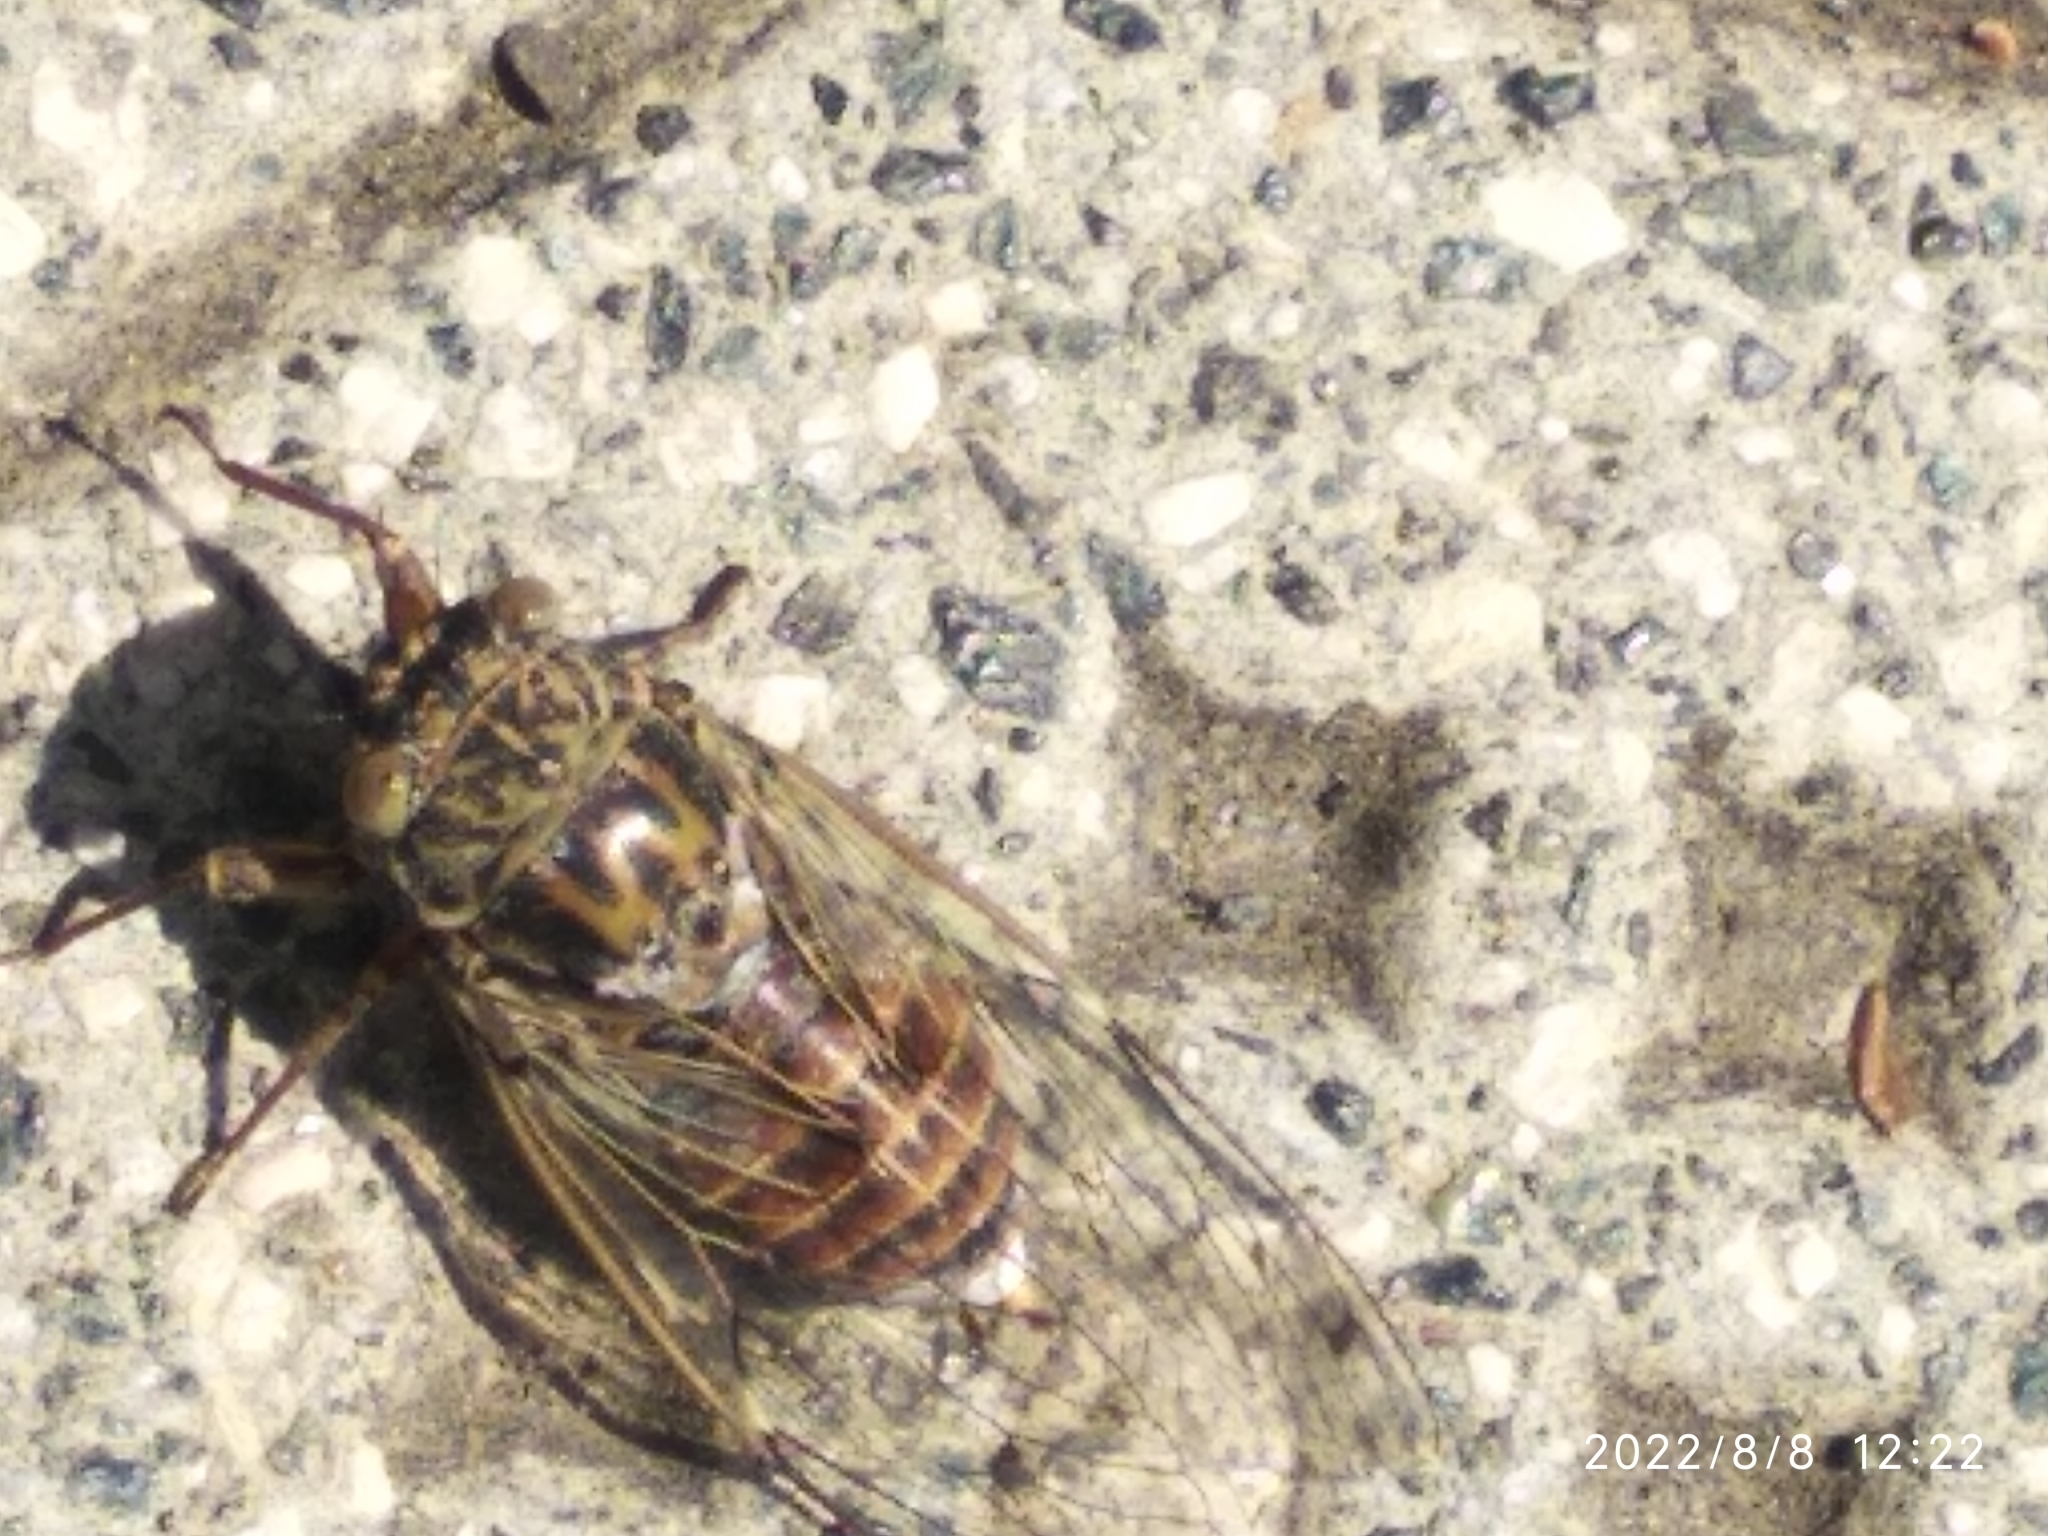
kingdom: Animalia
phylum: Arthropoda
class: Insecta
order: Hemiptera
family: Cicadidae
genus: Cicada
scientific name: Cicada orni
